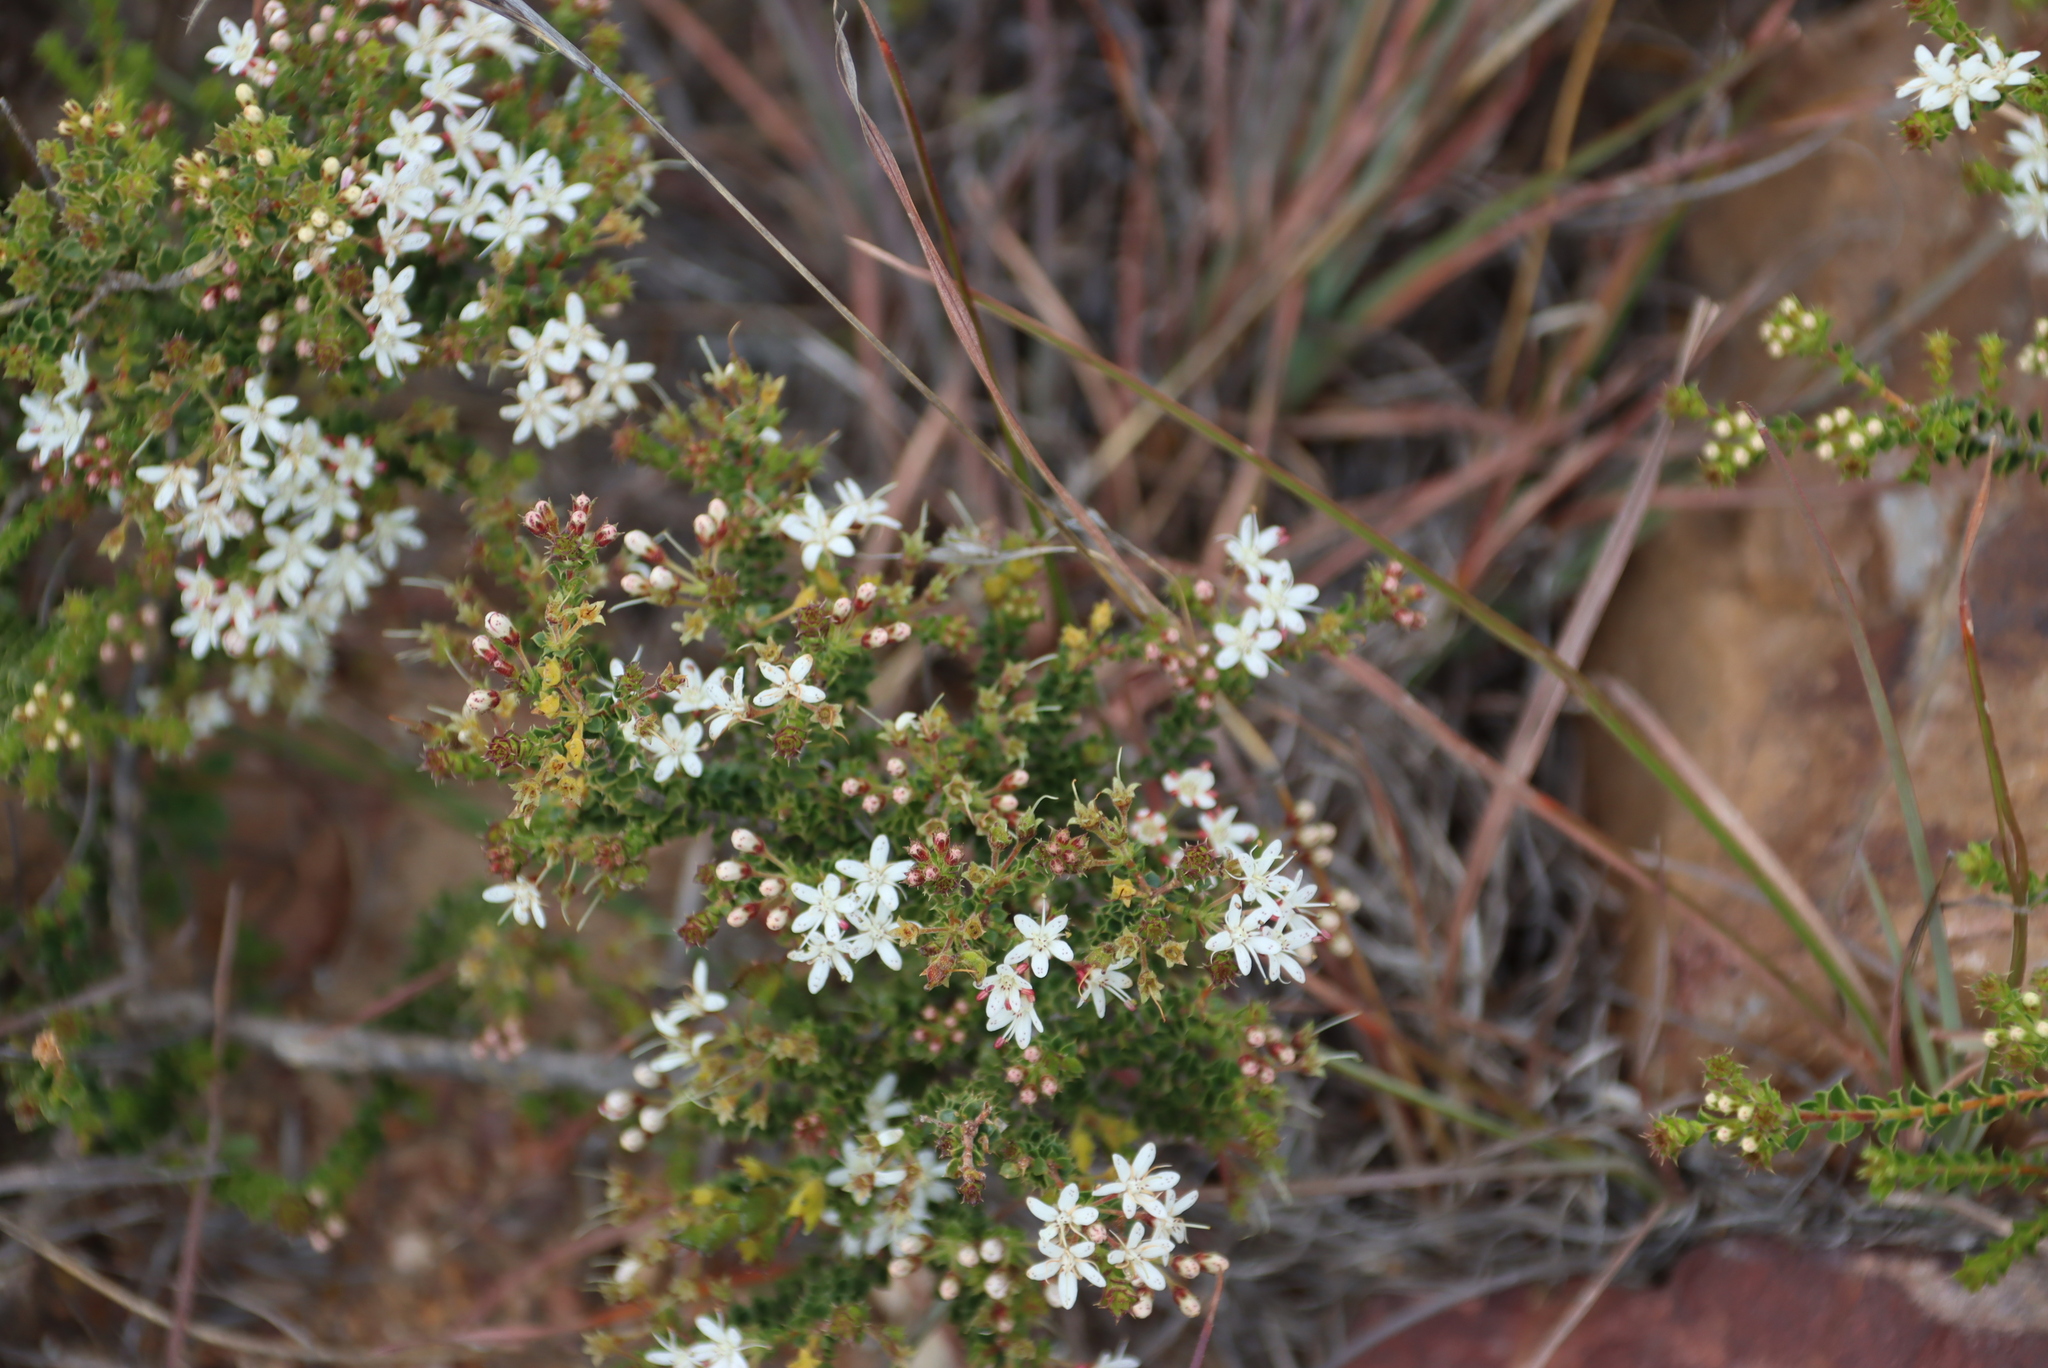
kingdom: Plantae
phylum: Tracheophyta
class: Magnoliopsida
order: Sapindales
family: Rutaceae
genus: Agathosma
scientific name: Agathosma recurvifolia
